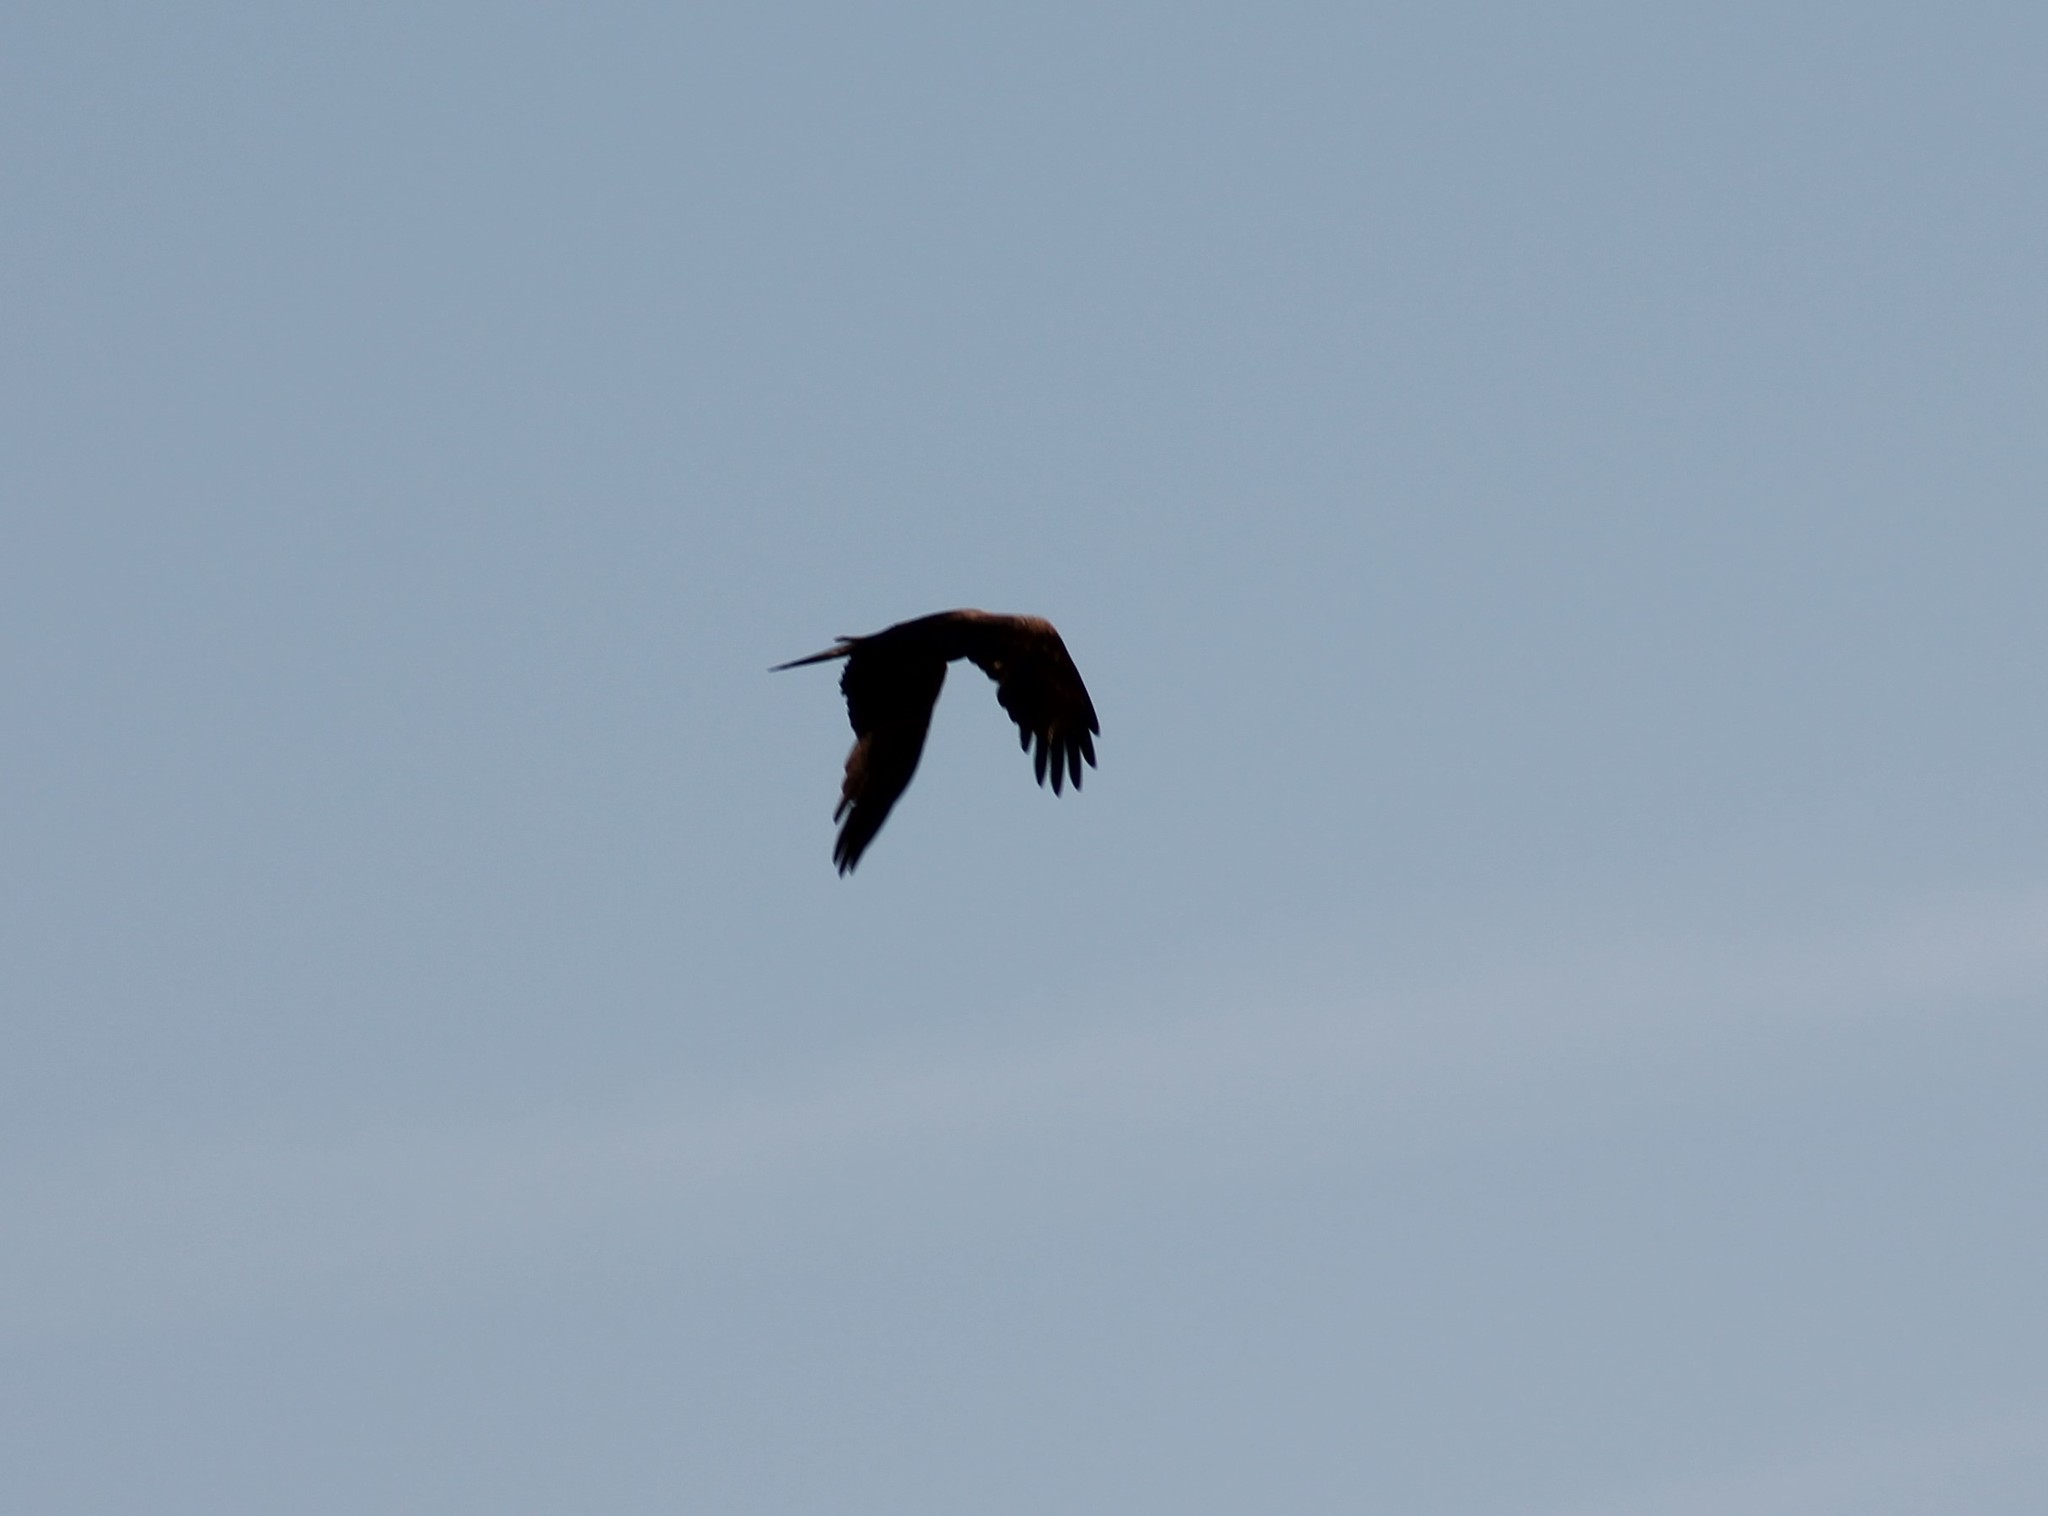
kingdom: Animalia
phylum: Chordata
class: Aves
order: Accipitriformes
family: Accipitridae
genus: Milvus
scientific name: Milvus migrans
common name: Black kite
